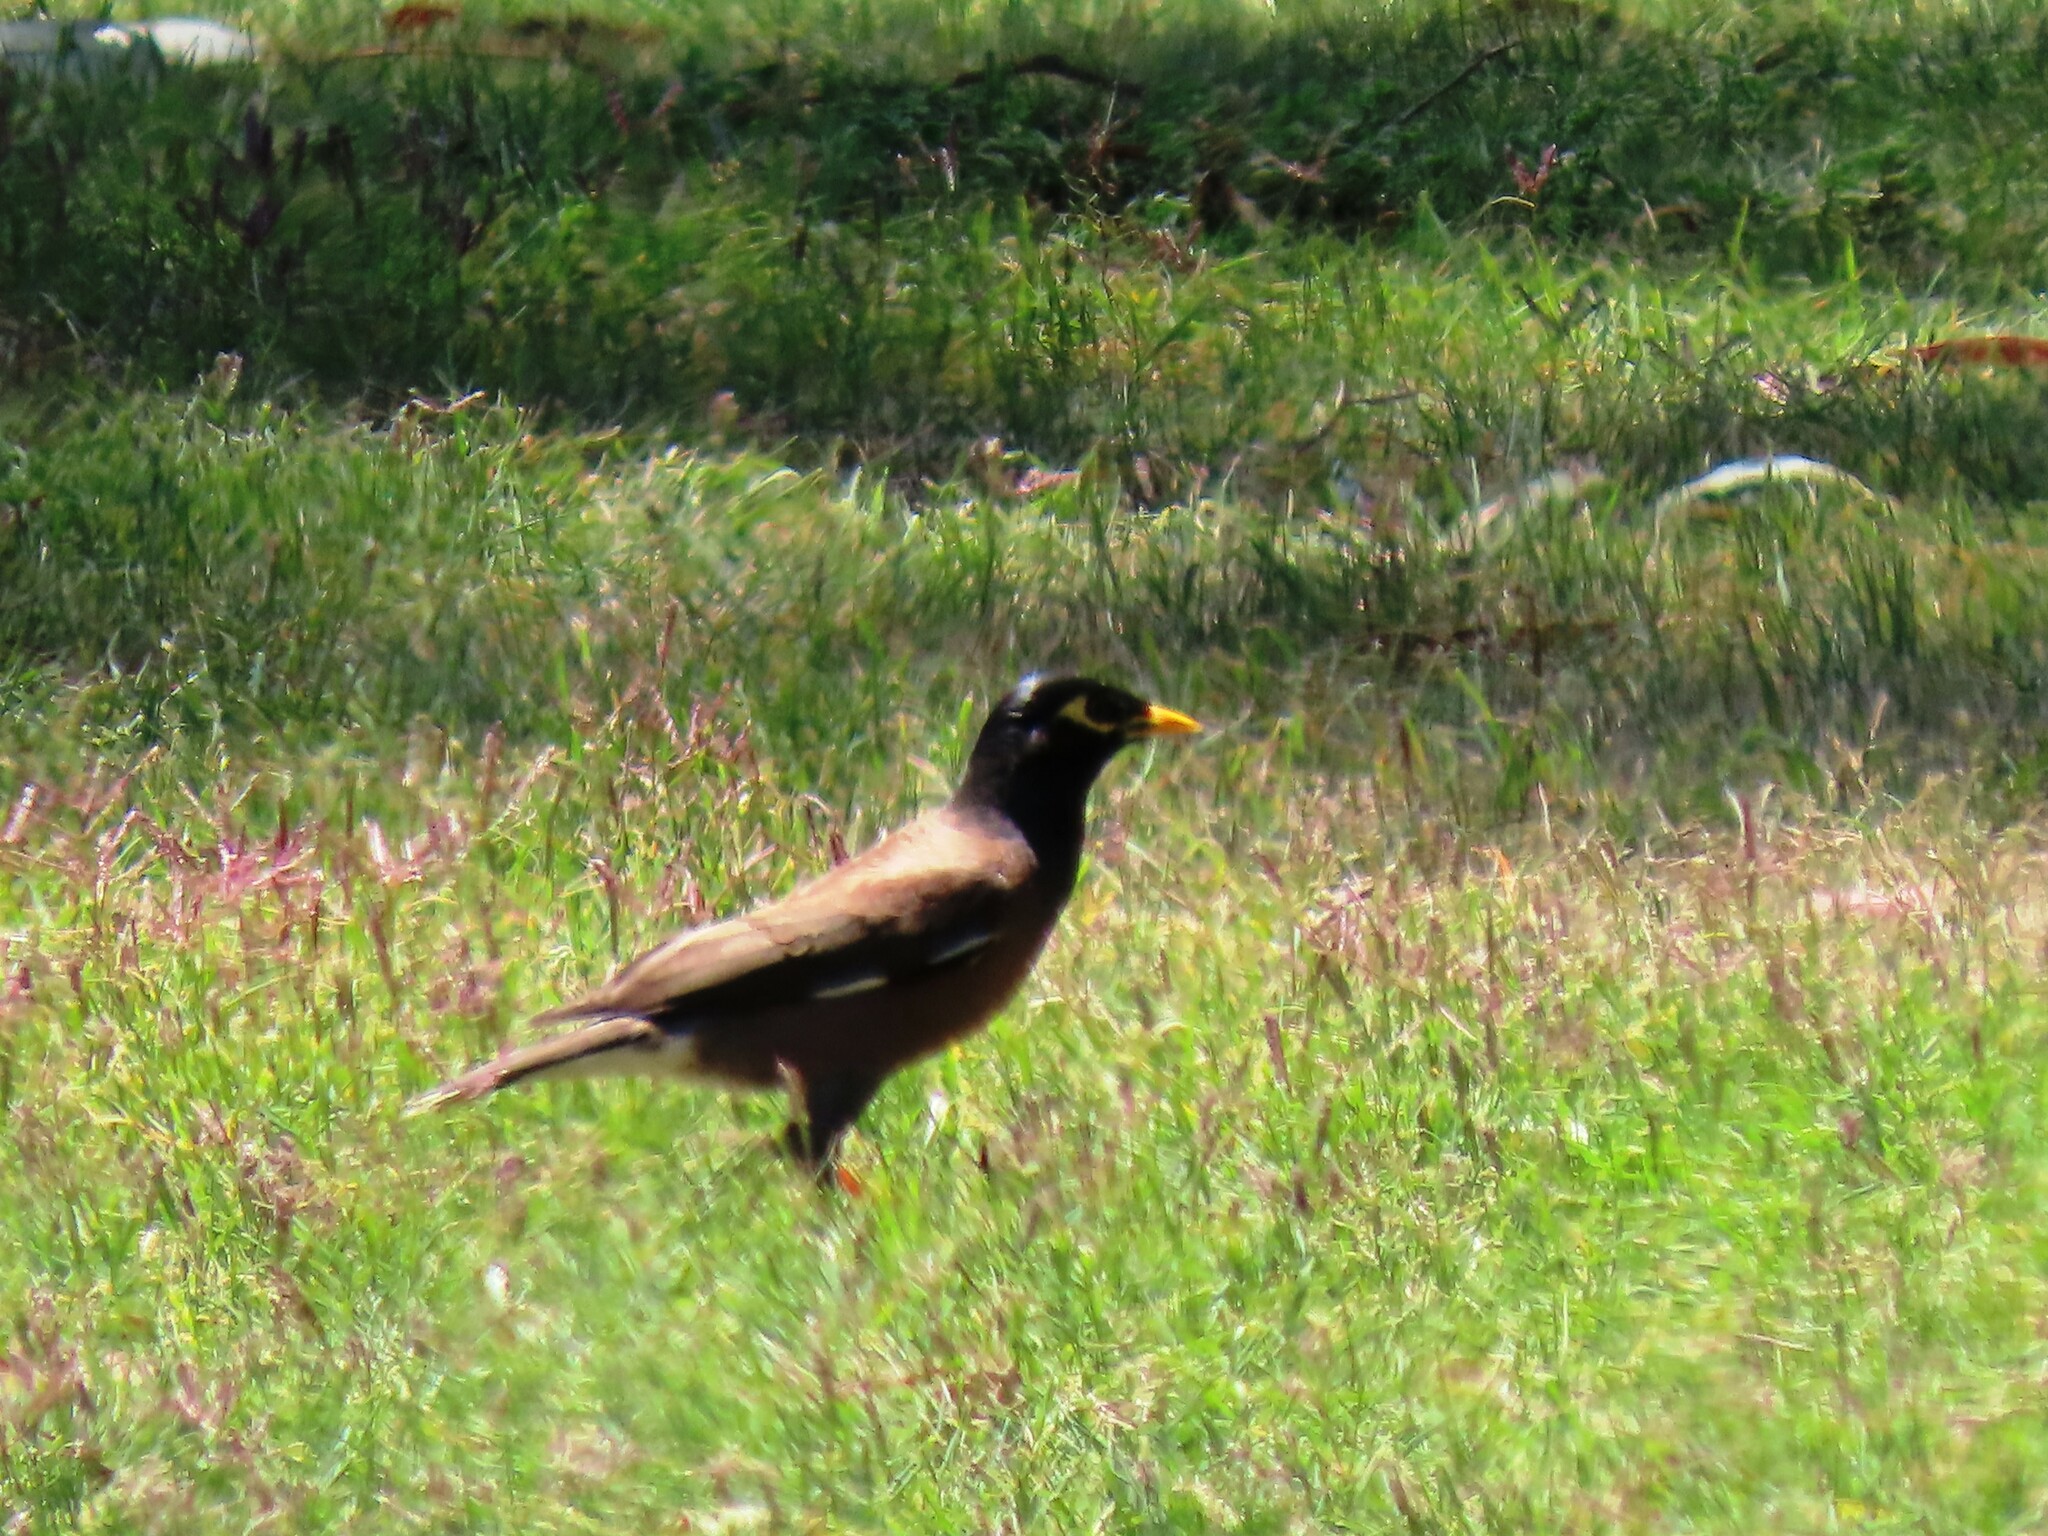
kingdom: Animalia
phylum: Chordata
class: Aves
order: Passeriformes
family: Sturnidae
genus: Acridotheres
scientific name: Acridotheres tristis
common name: Common myna
